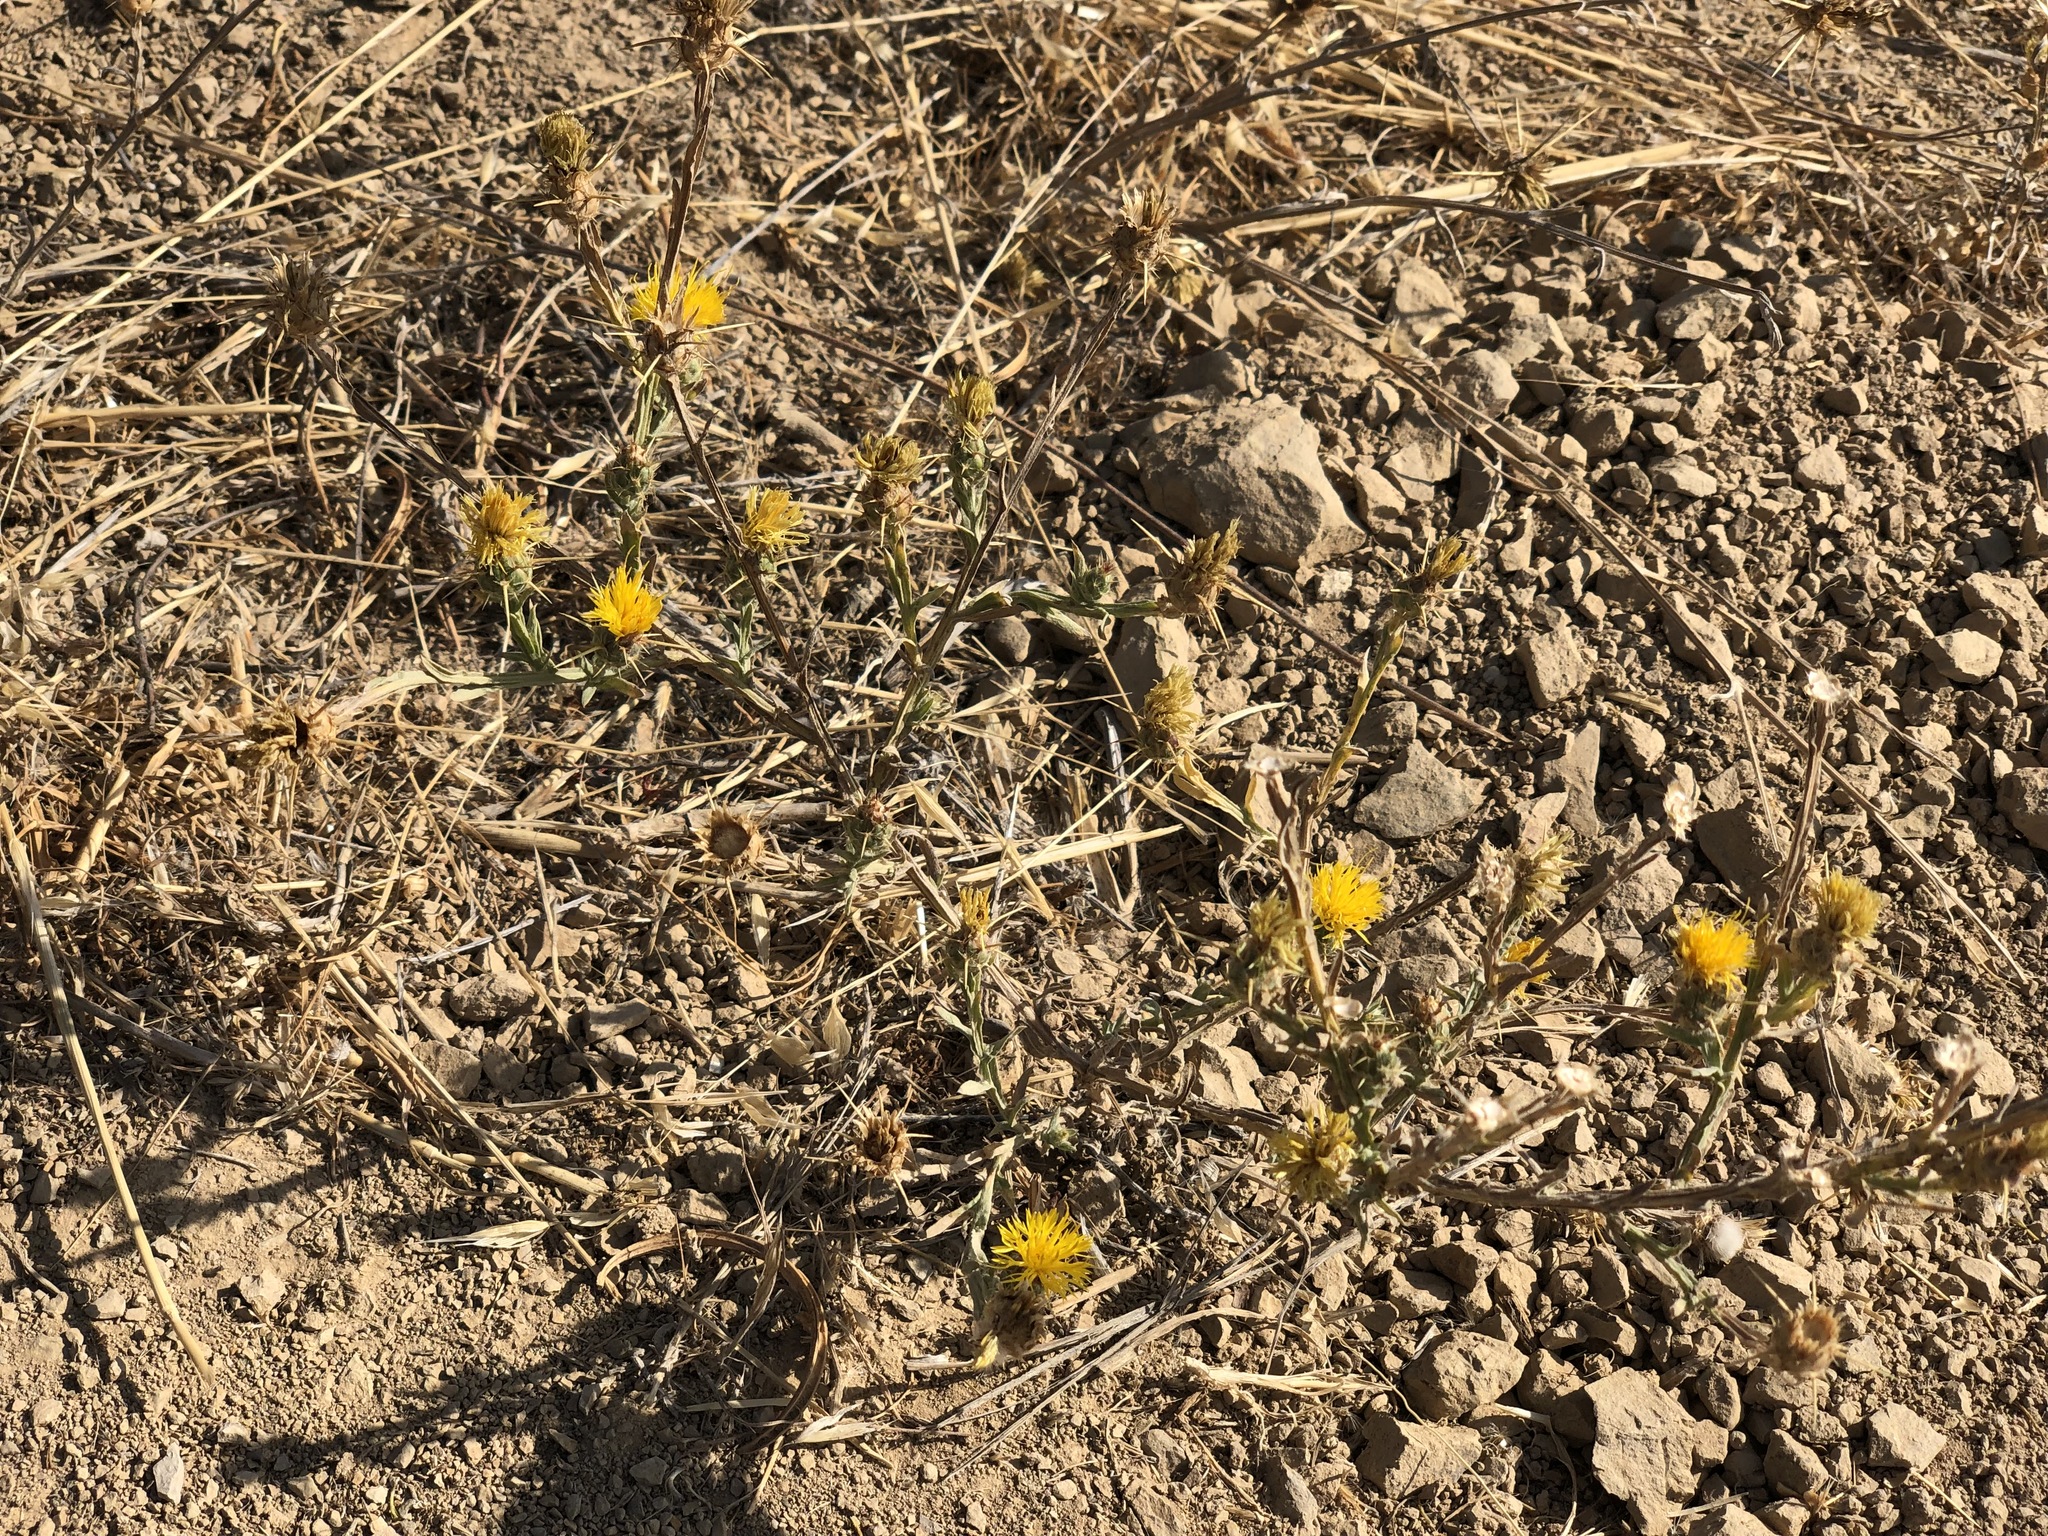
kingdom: Plantae
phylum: Tracheophyta
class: Magnoliopsida
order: Asterales
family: Asteraceae
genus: Centaurea
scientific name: Centaurea solstitialis
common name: Yellow star-thistle
